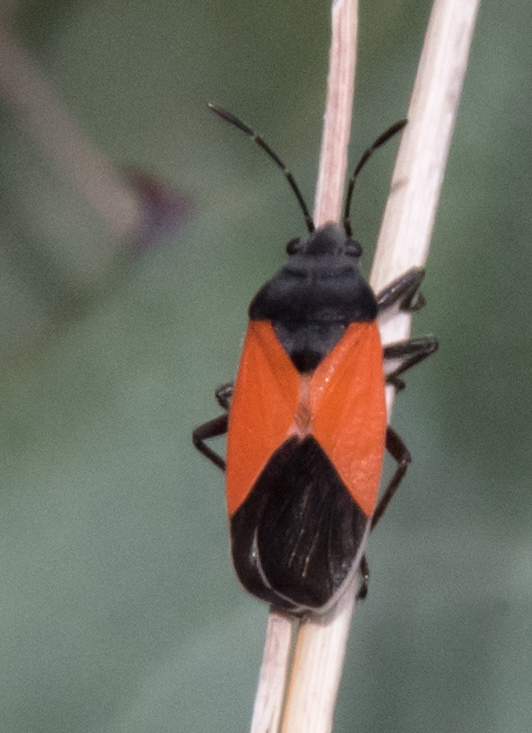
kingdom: Animalia
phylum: Arthropoda
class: Insecta
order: Hemiptera
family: Lygaeidae
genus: Melanopleurus
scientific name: Melanopleurus belfragei
